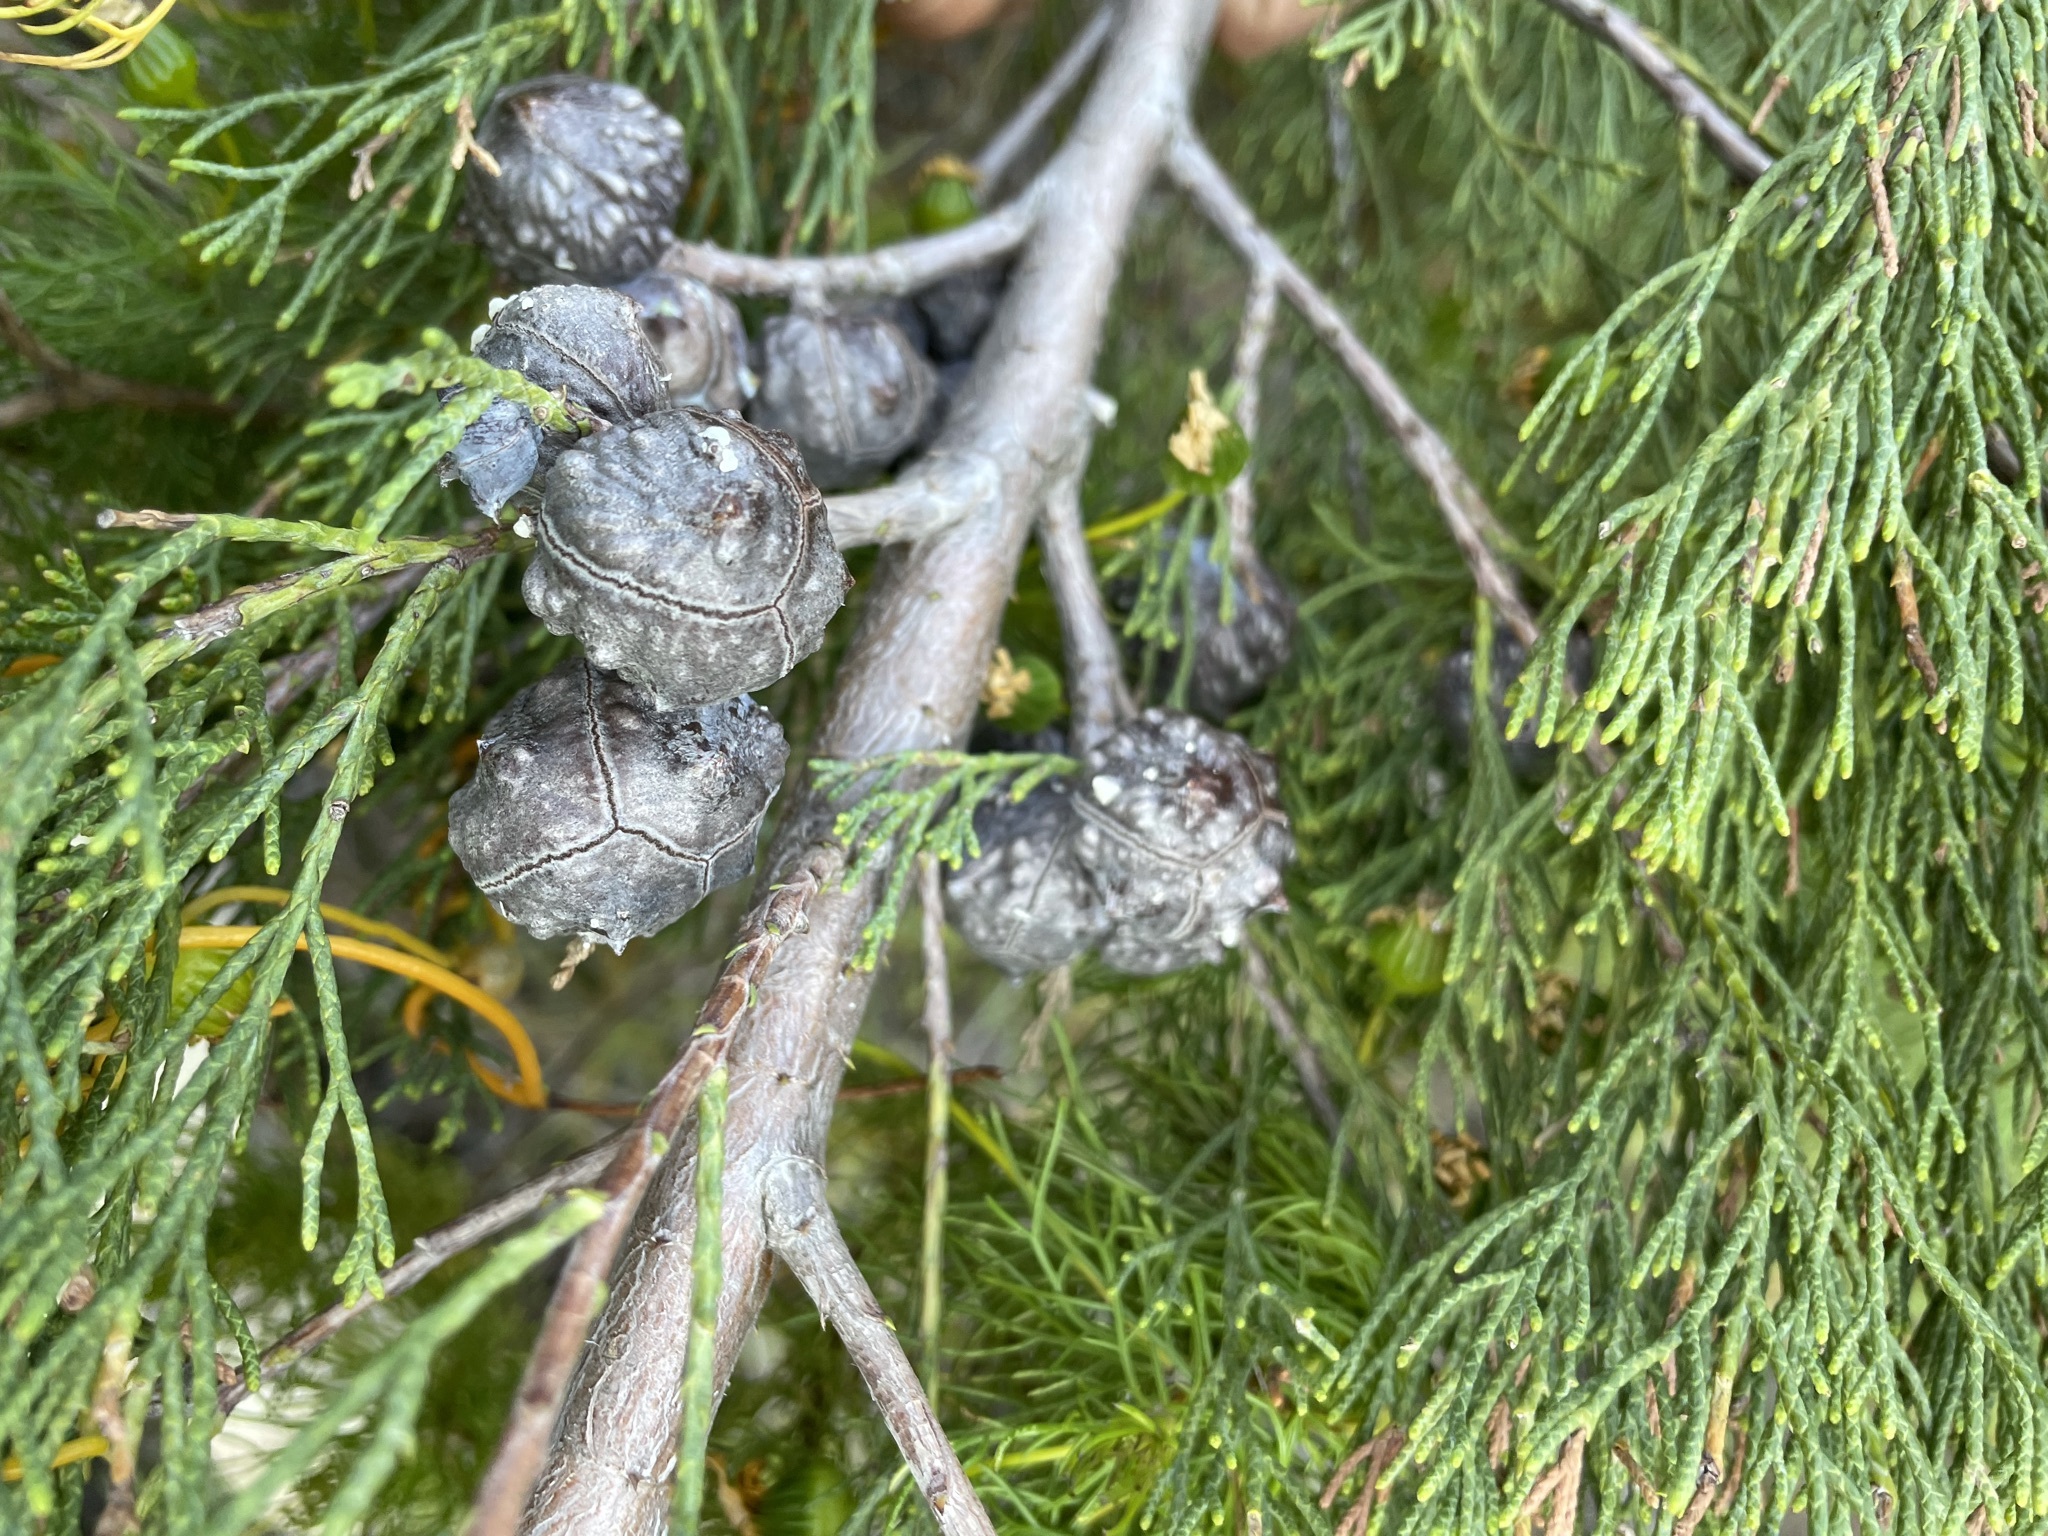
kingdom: Plantae
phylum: Tracheophyta
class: Pinopsida
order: Pinales
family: Cupressaceae
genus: Widdringtonia
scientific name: Widdringtonia nodiflora
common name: Cape cypress
